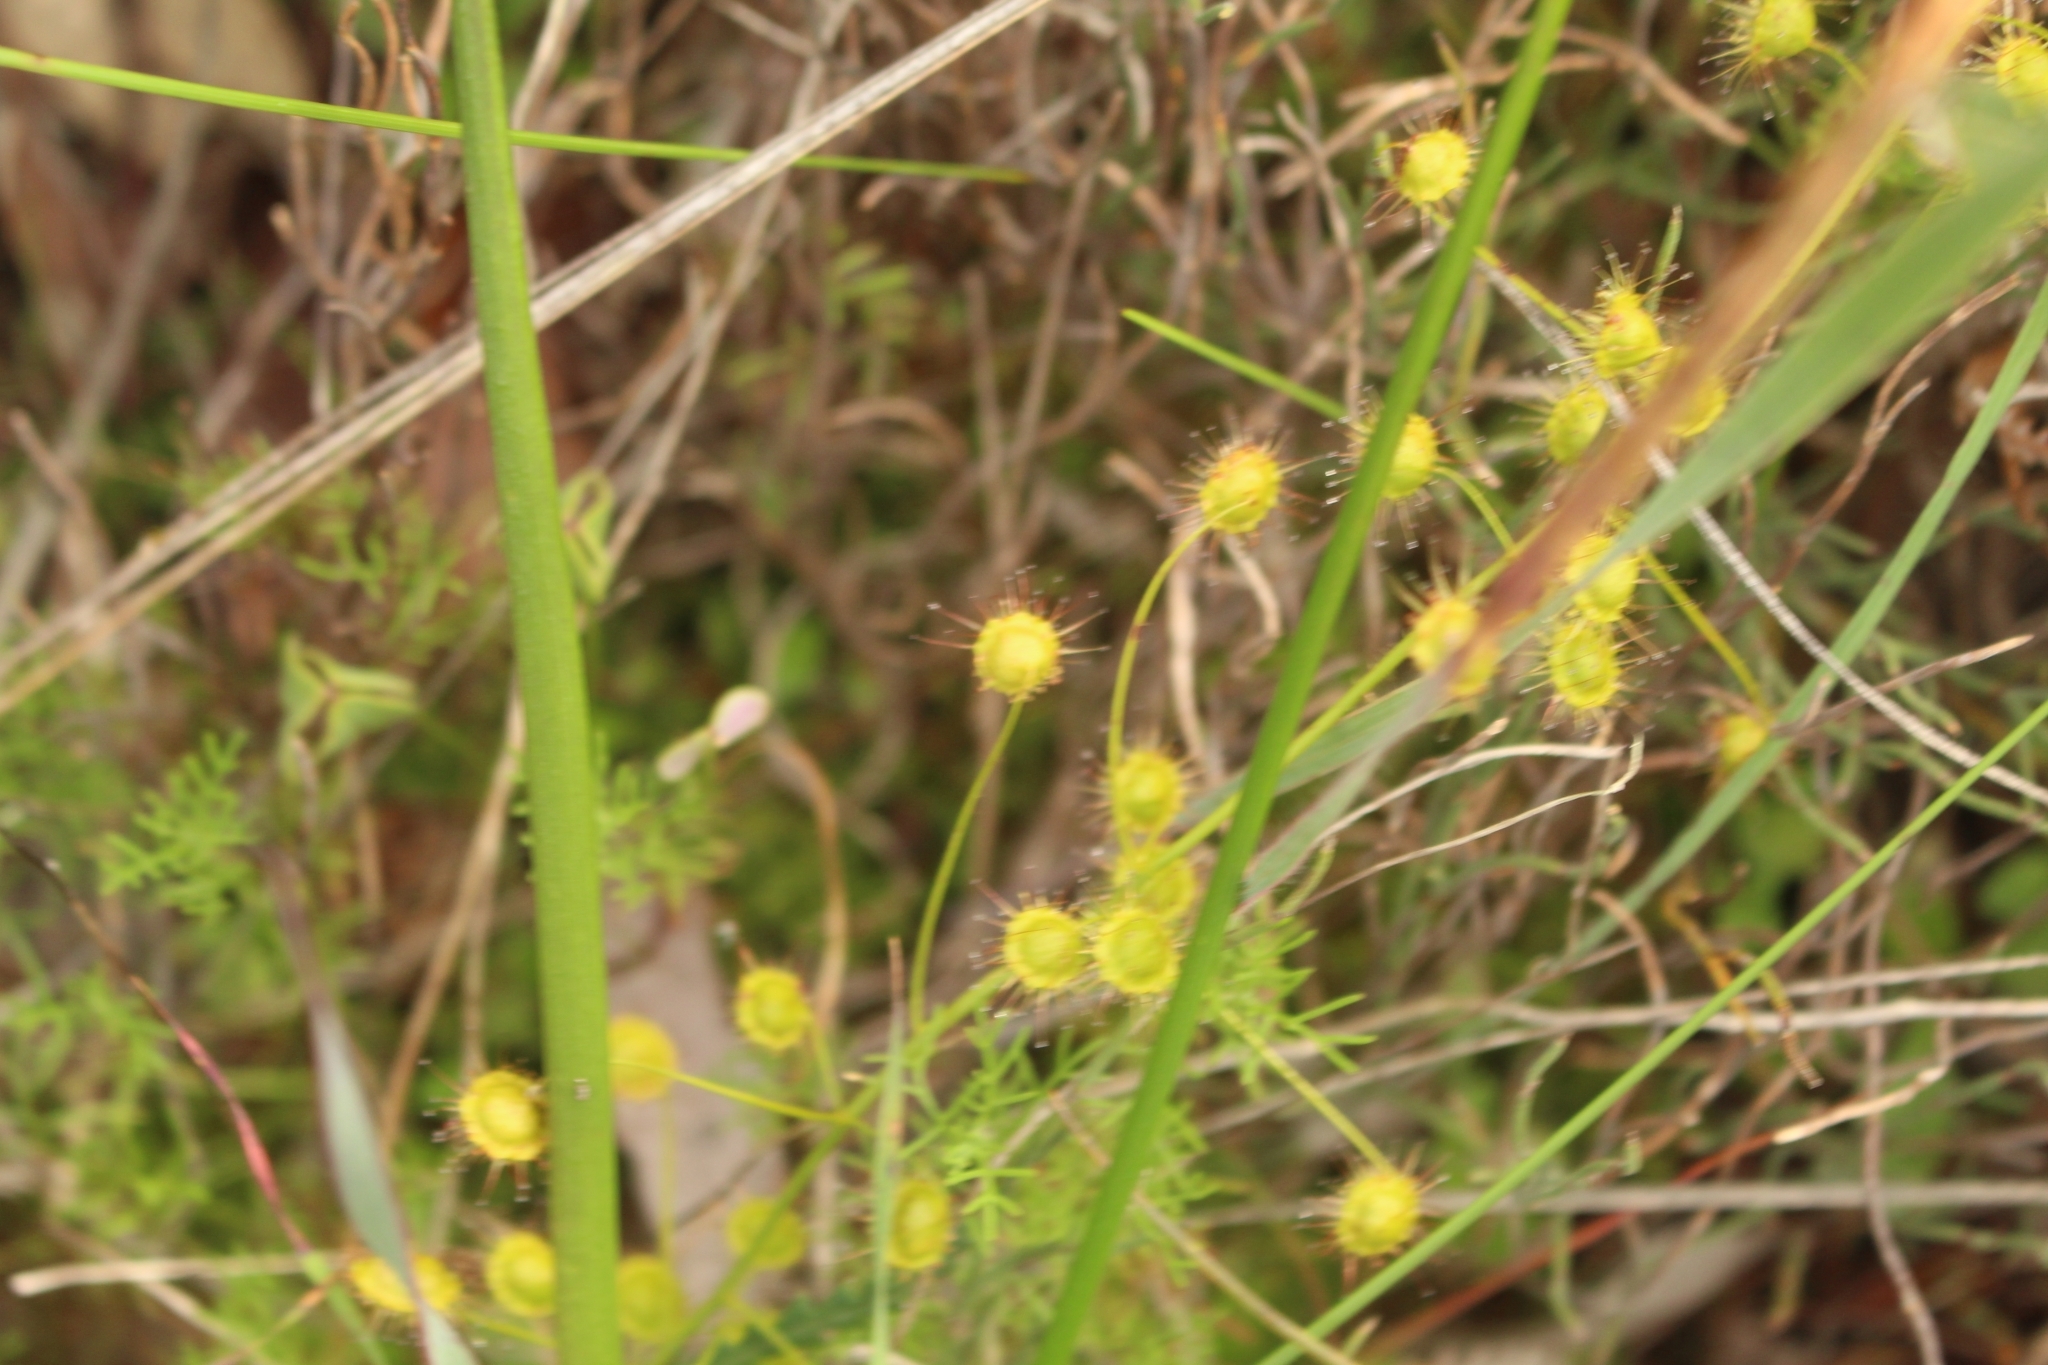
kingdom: Plantae
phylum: Tracheophyta
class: Magnoliopsida
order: Caryophyllales
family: Droseraceae
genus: Drosera
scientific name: Drosera macrantha
